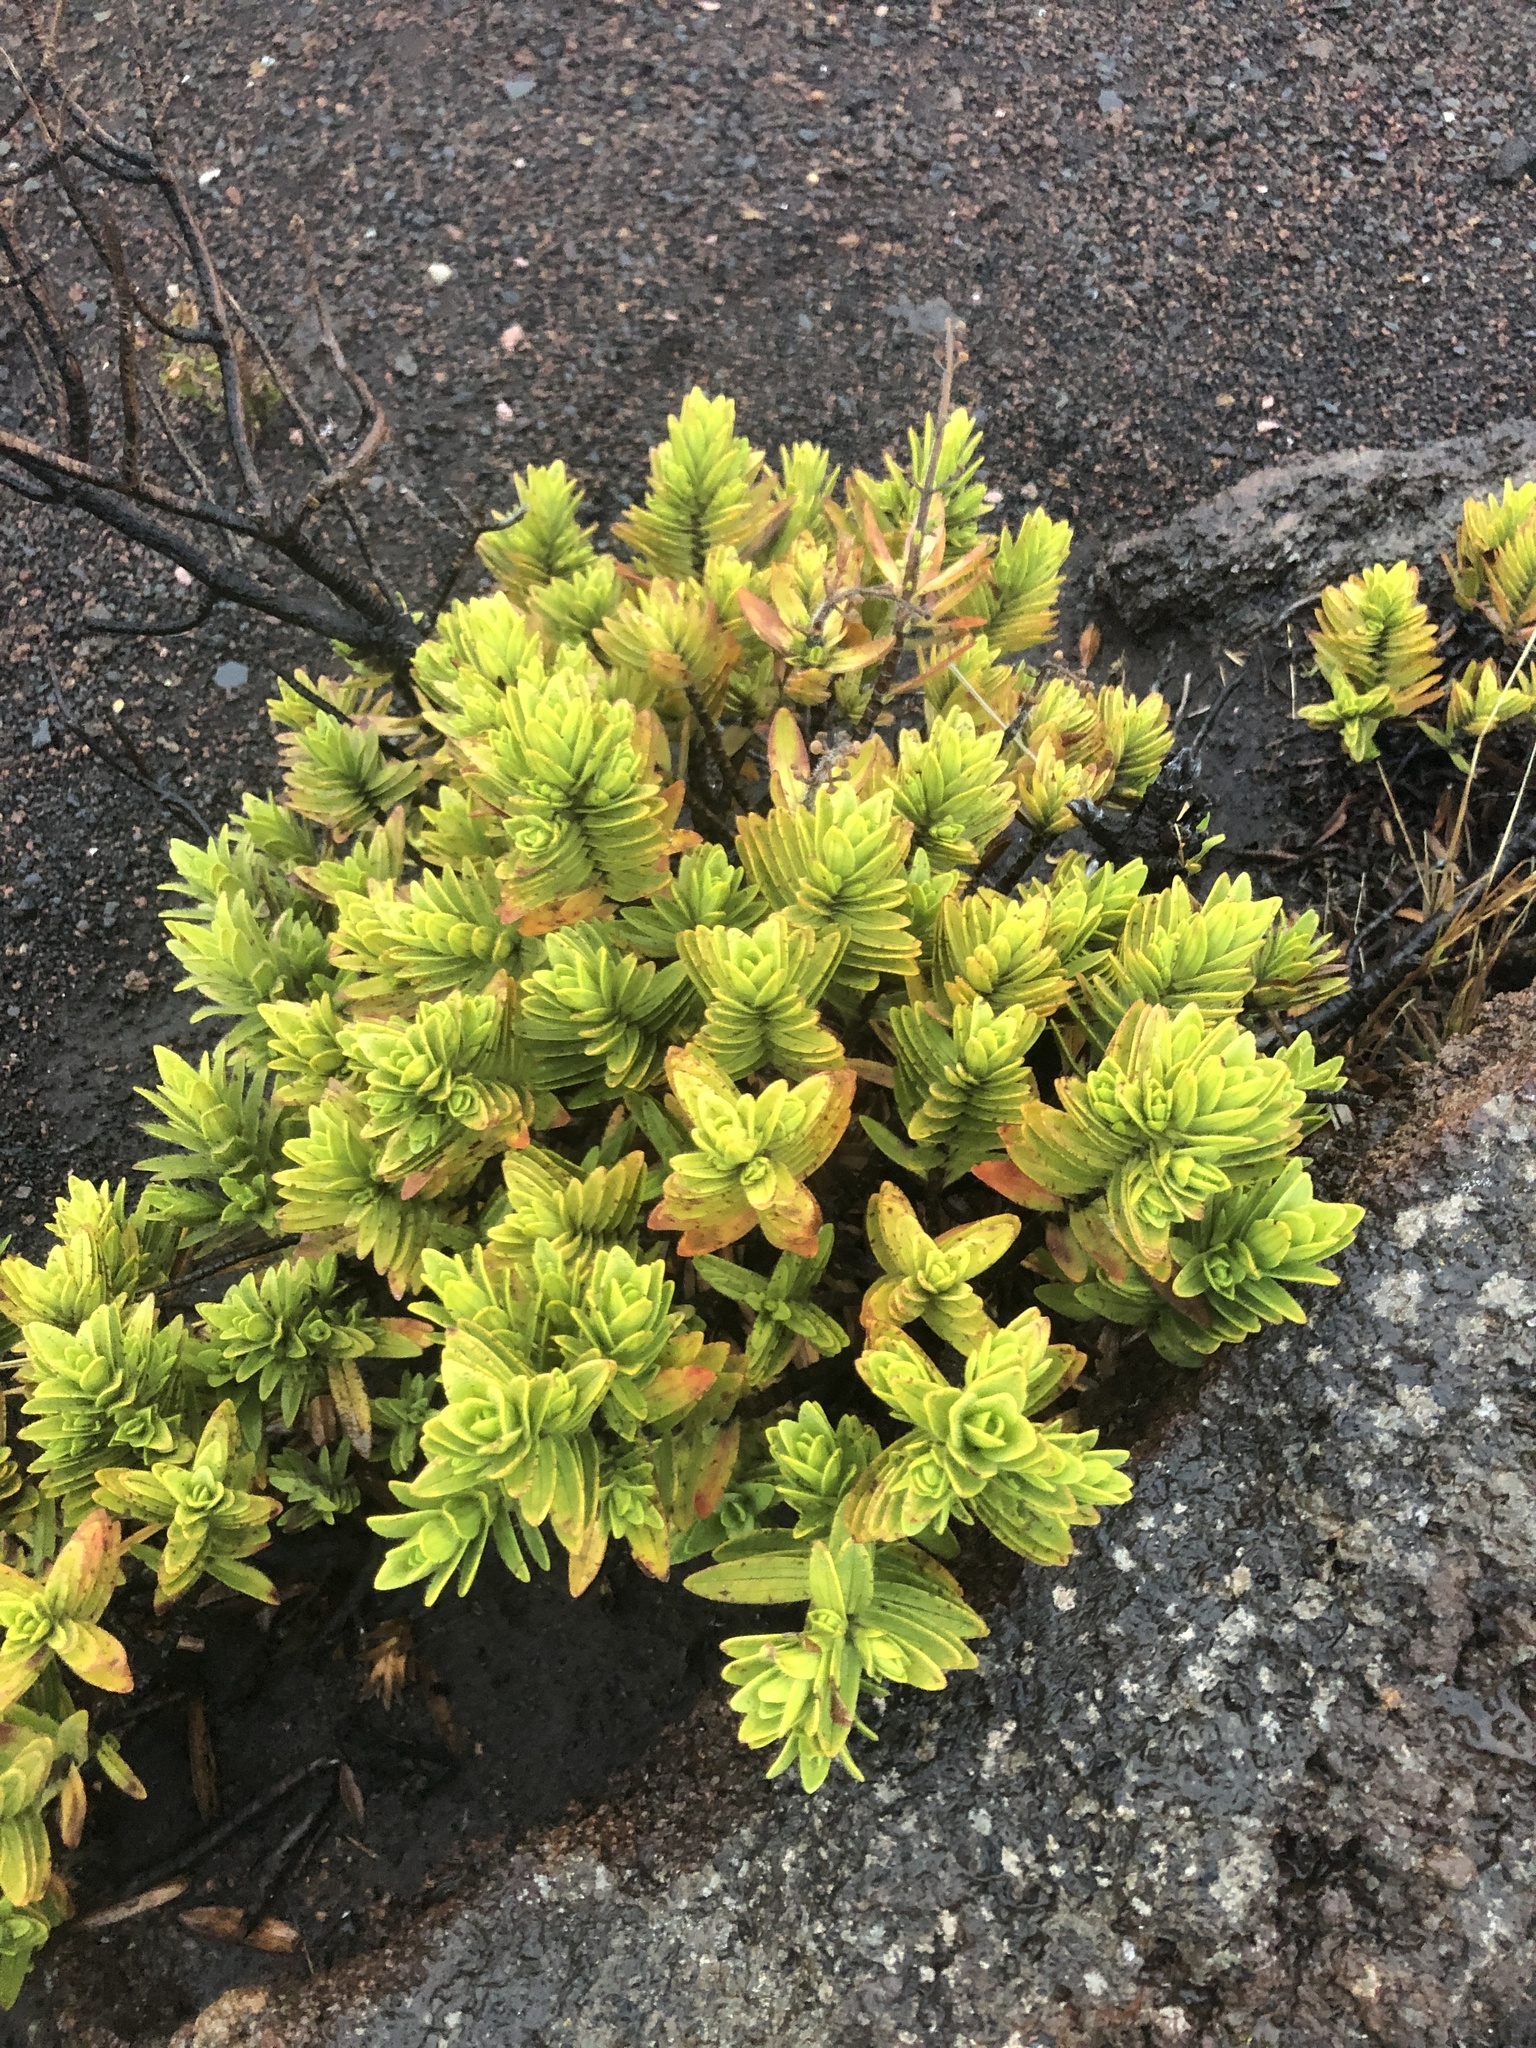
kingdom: Plantae
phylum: Tracheophyta
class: Magnoliopsida
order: Asterales
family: Asteraceae
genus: Dubautia
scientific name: Dubautia menziesii
